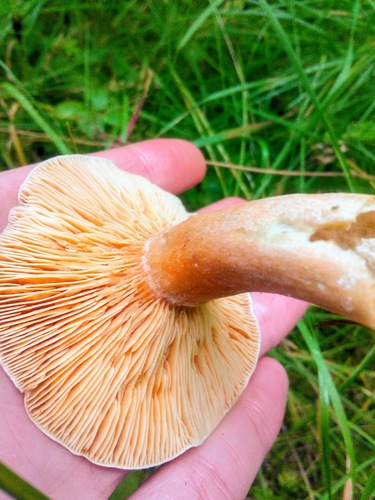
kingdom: Fungi
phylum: Basidiomycota
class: Agaricomycetes
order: Russulales
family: Russulaceae
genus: Lactarius
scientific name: Lactarius deterrimus
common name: False saffron milkcap
